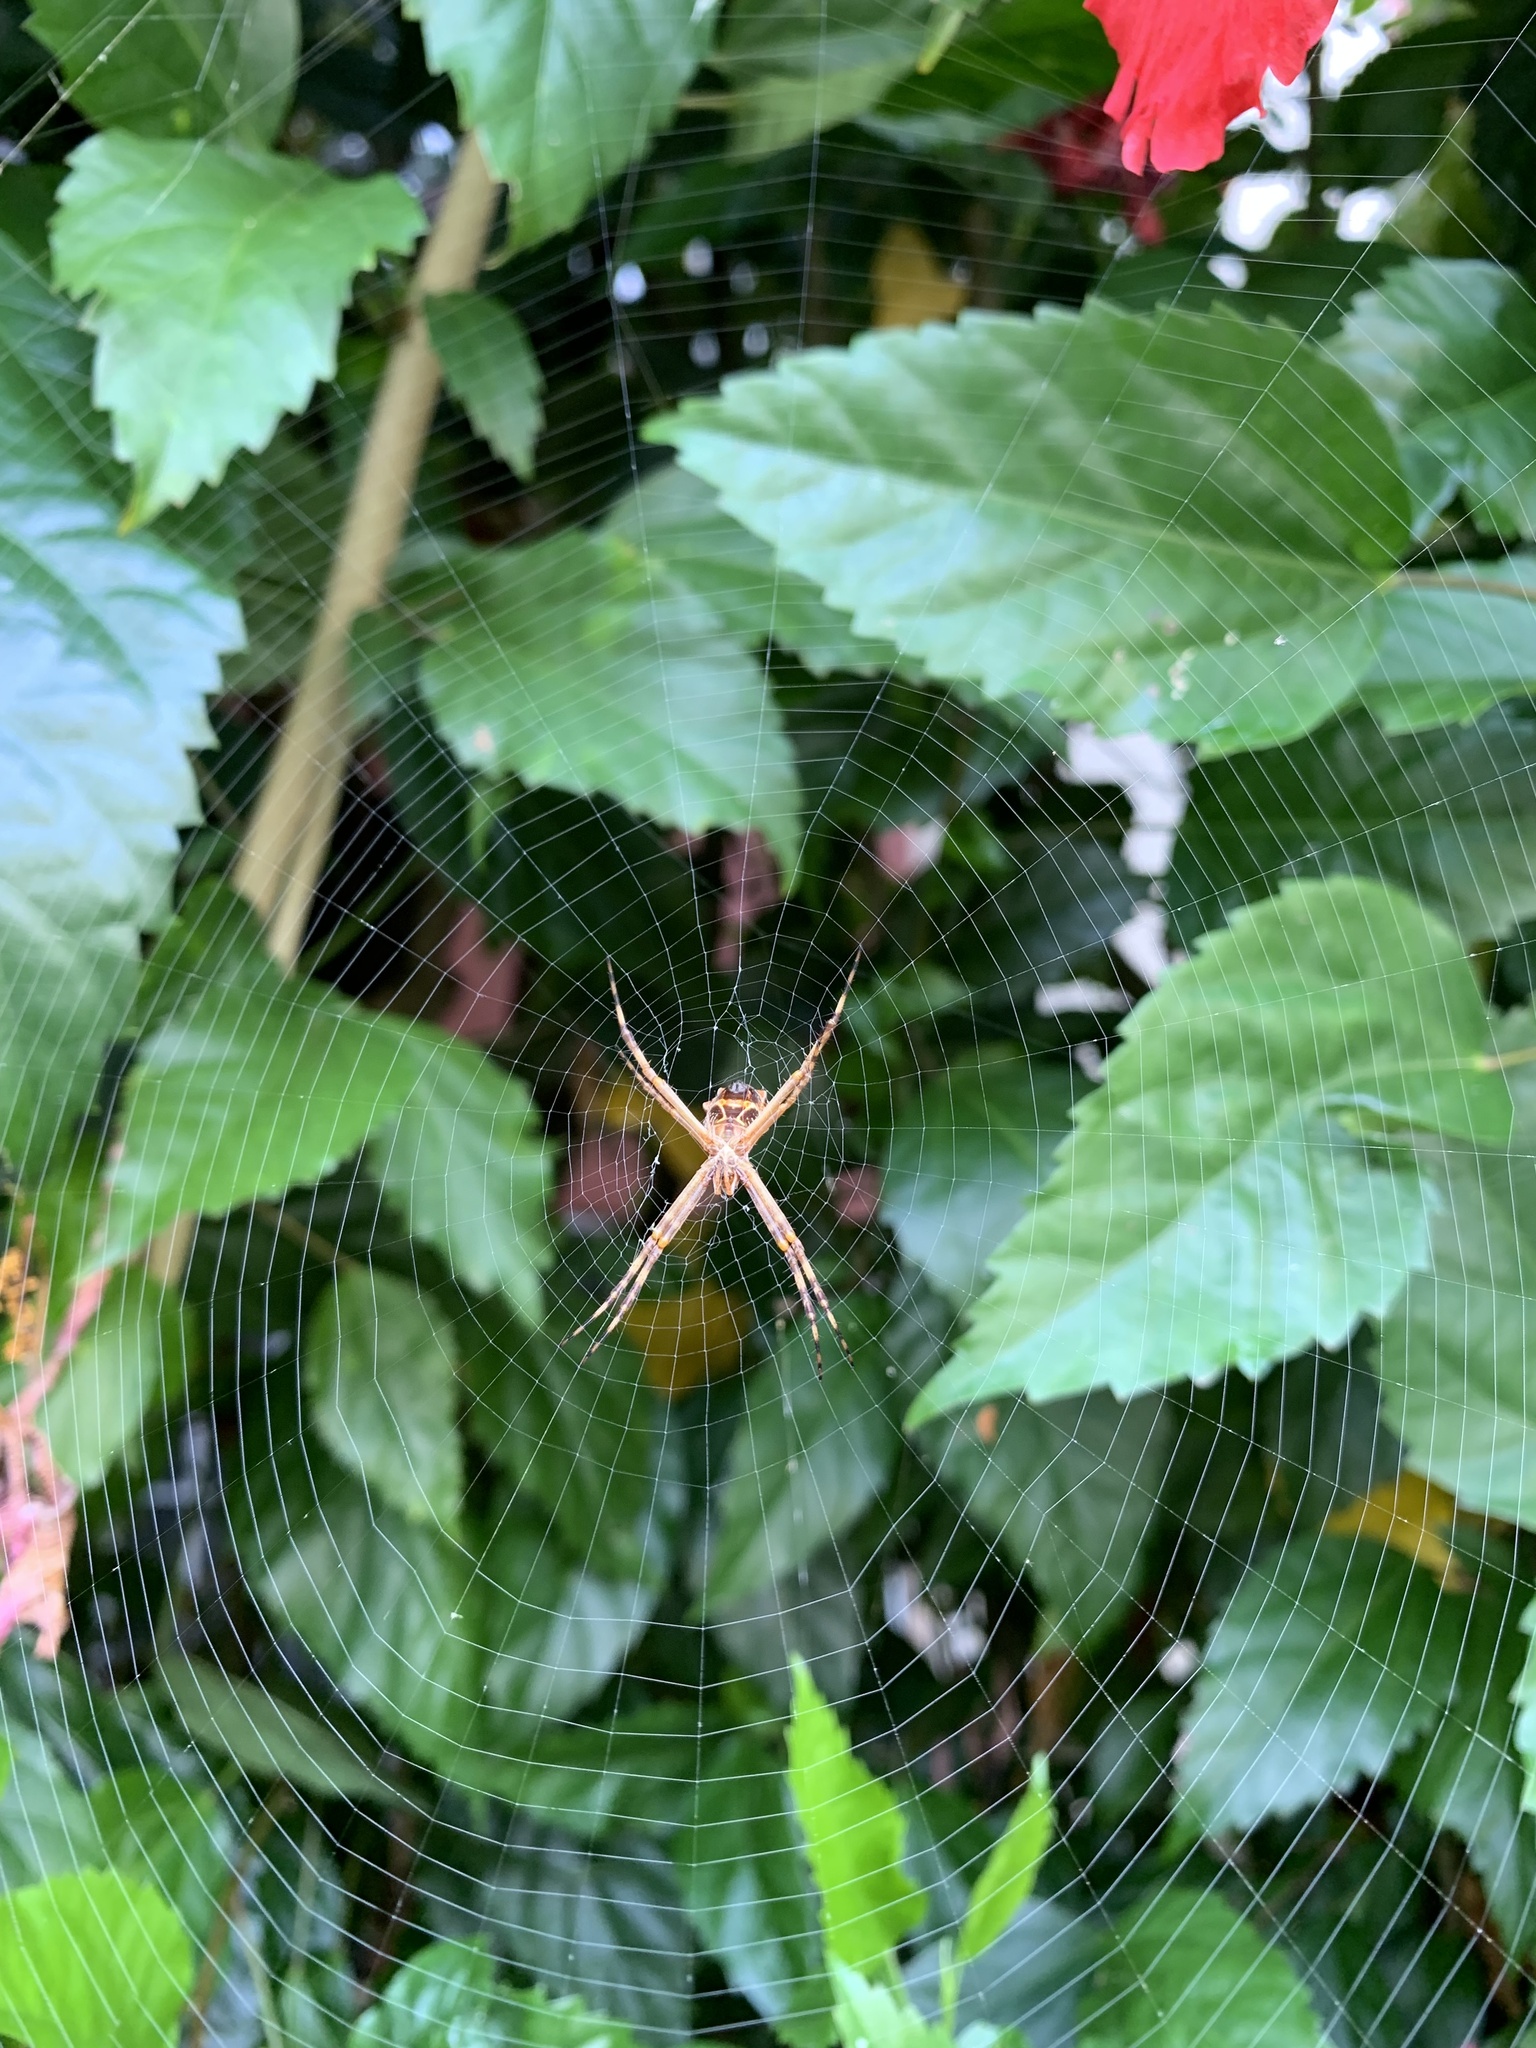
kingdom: Animalia
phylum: Arthropoda
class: Arachnida
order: Araneae
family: Araneidae
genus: Argiope
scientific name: Argiope argentata
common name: Orb weavers
